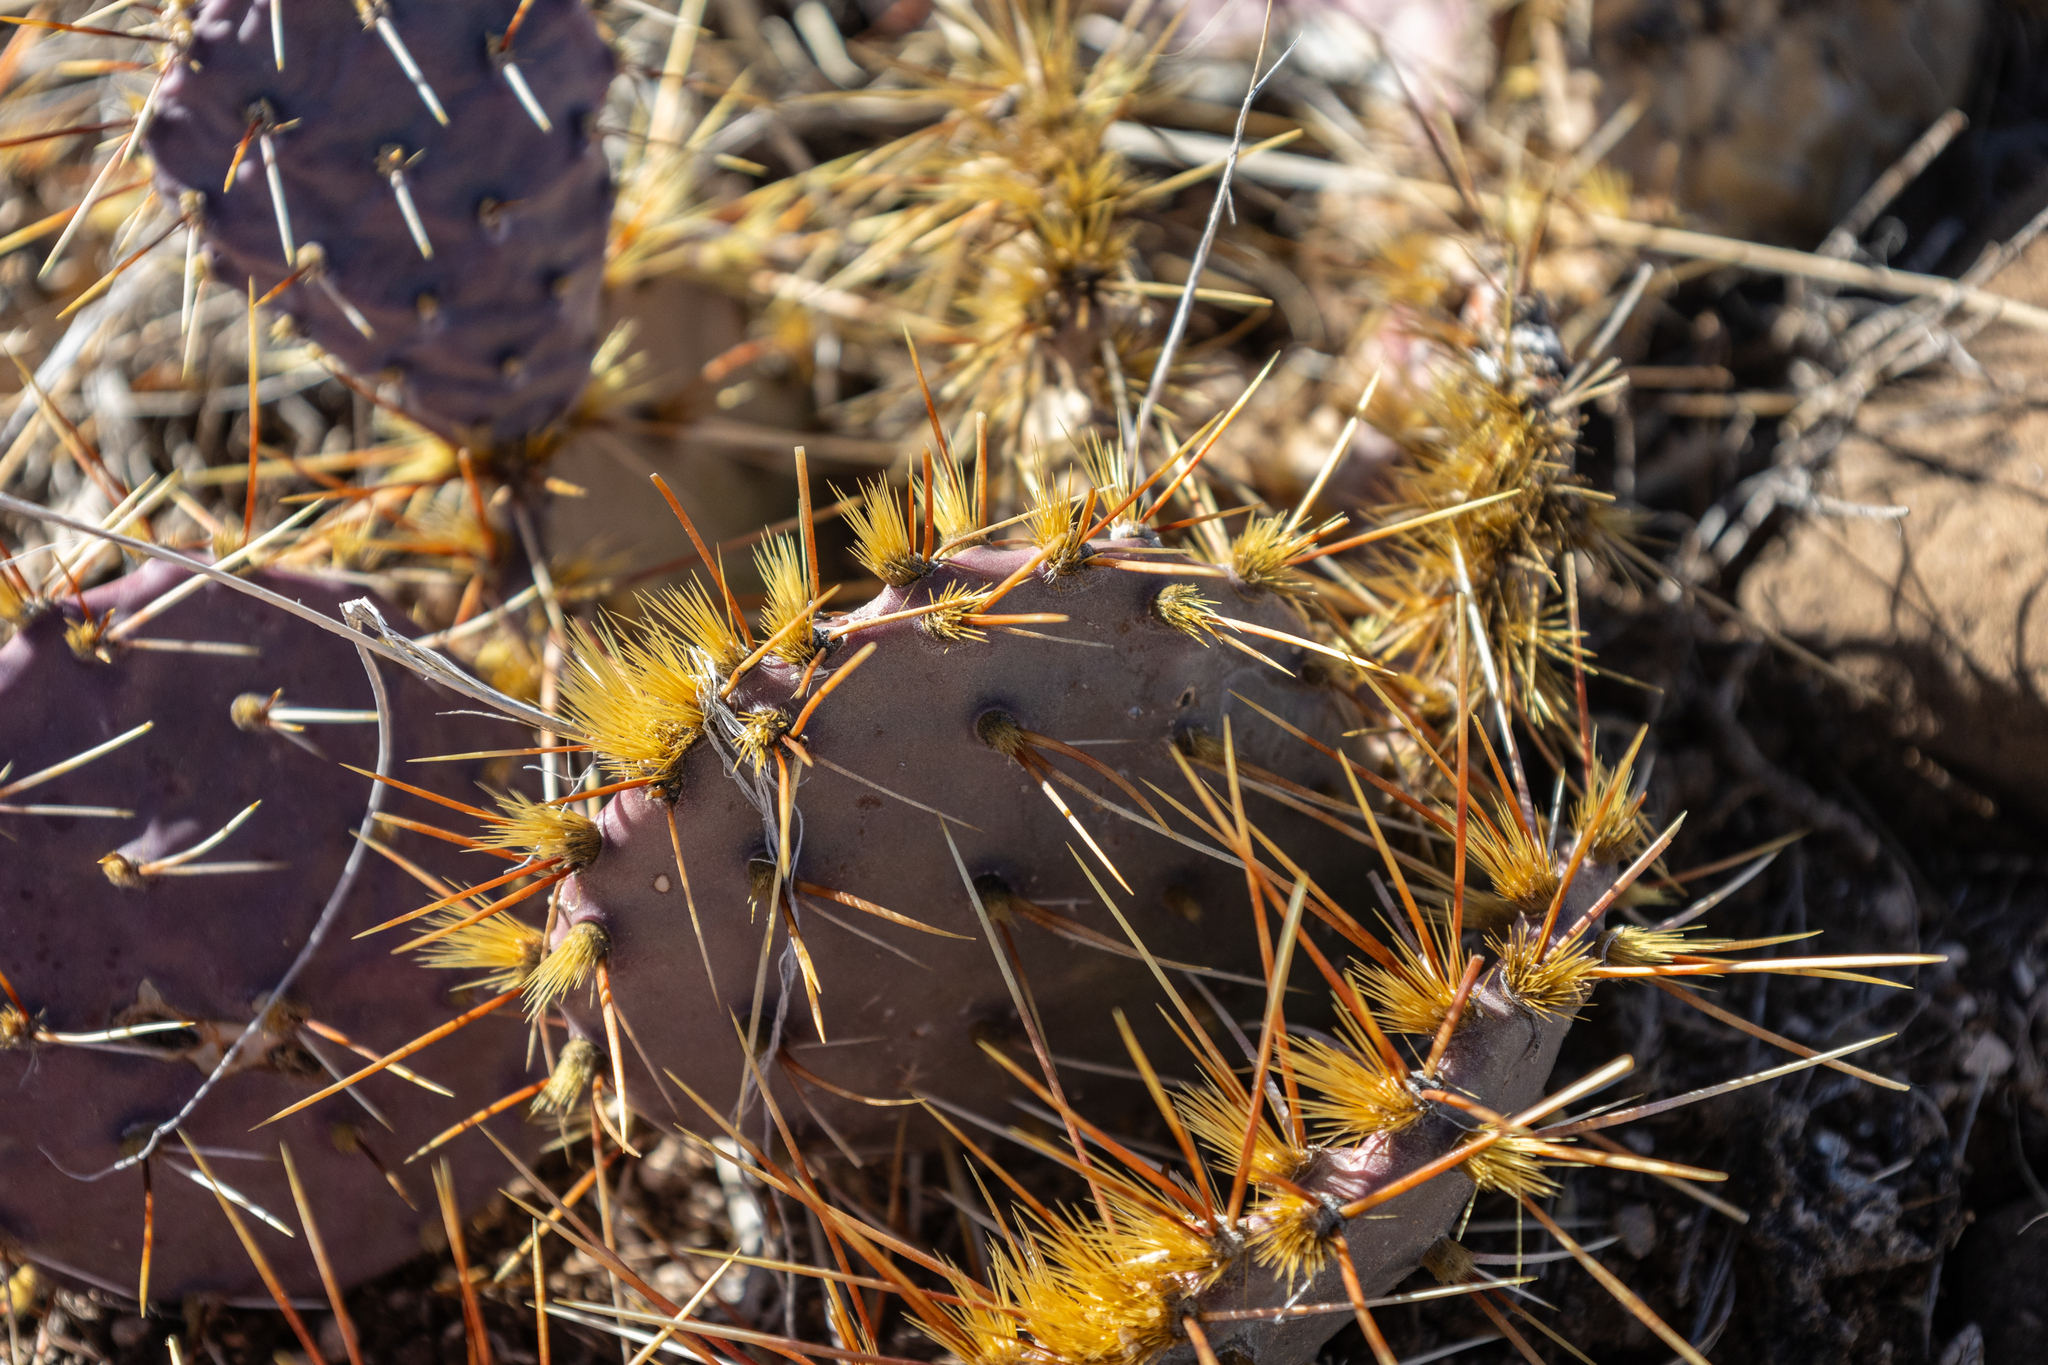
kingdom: Plantae
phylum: Tracheophyta
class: Magnoliopsida
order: Caryophyllales
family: Cactaceae
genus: Opuntia
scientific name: Opuntia phaeacantha
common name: New mexico prickly-pear
